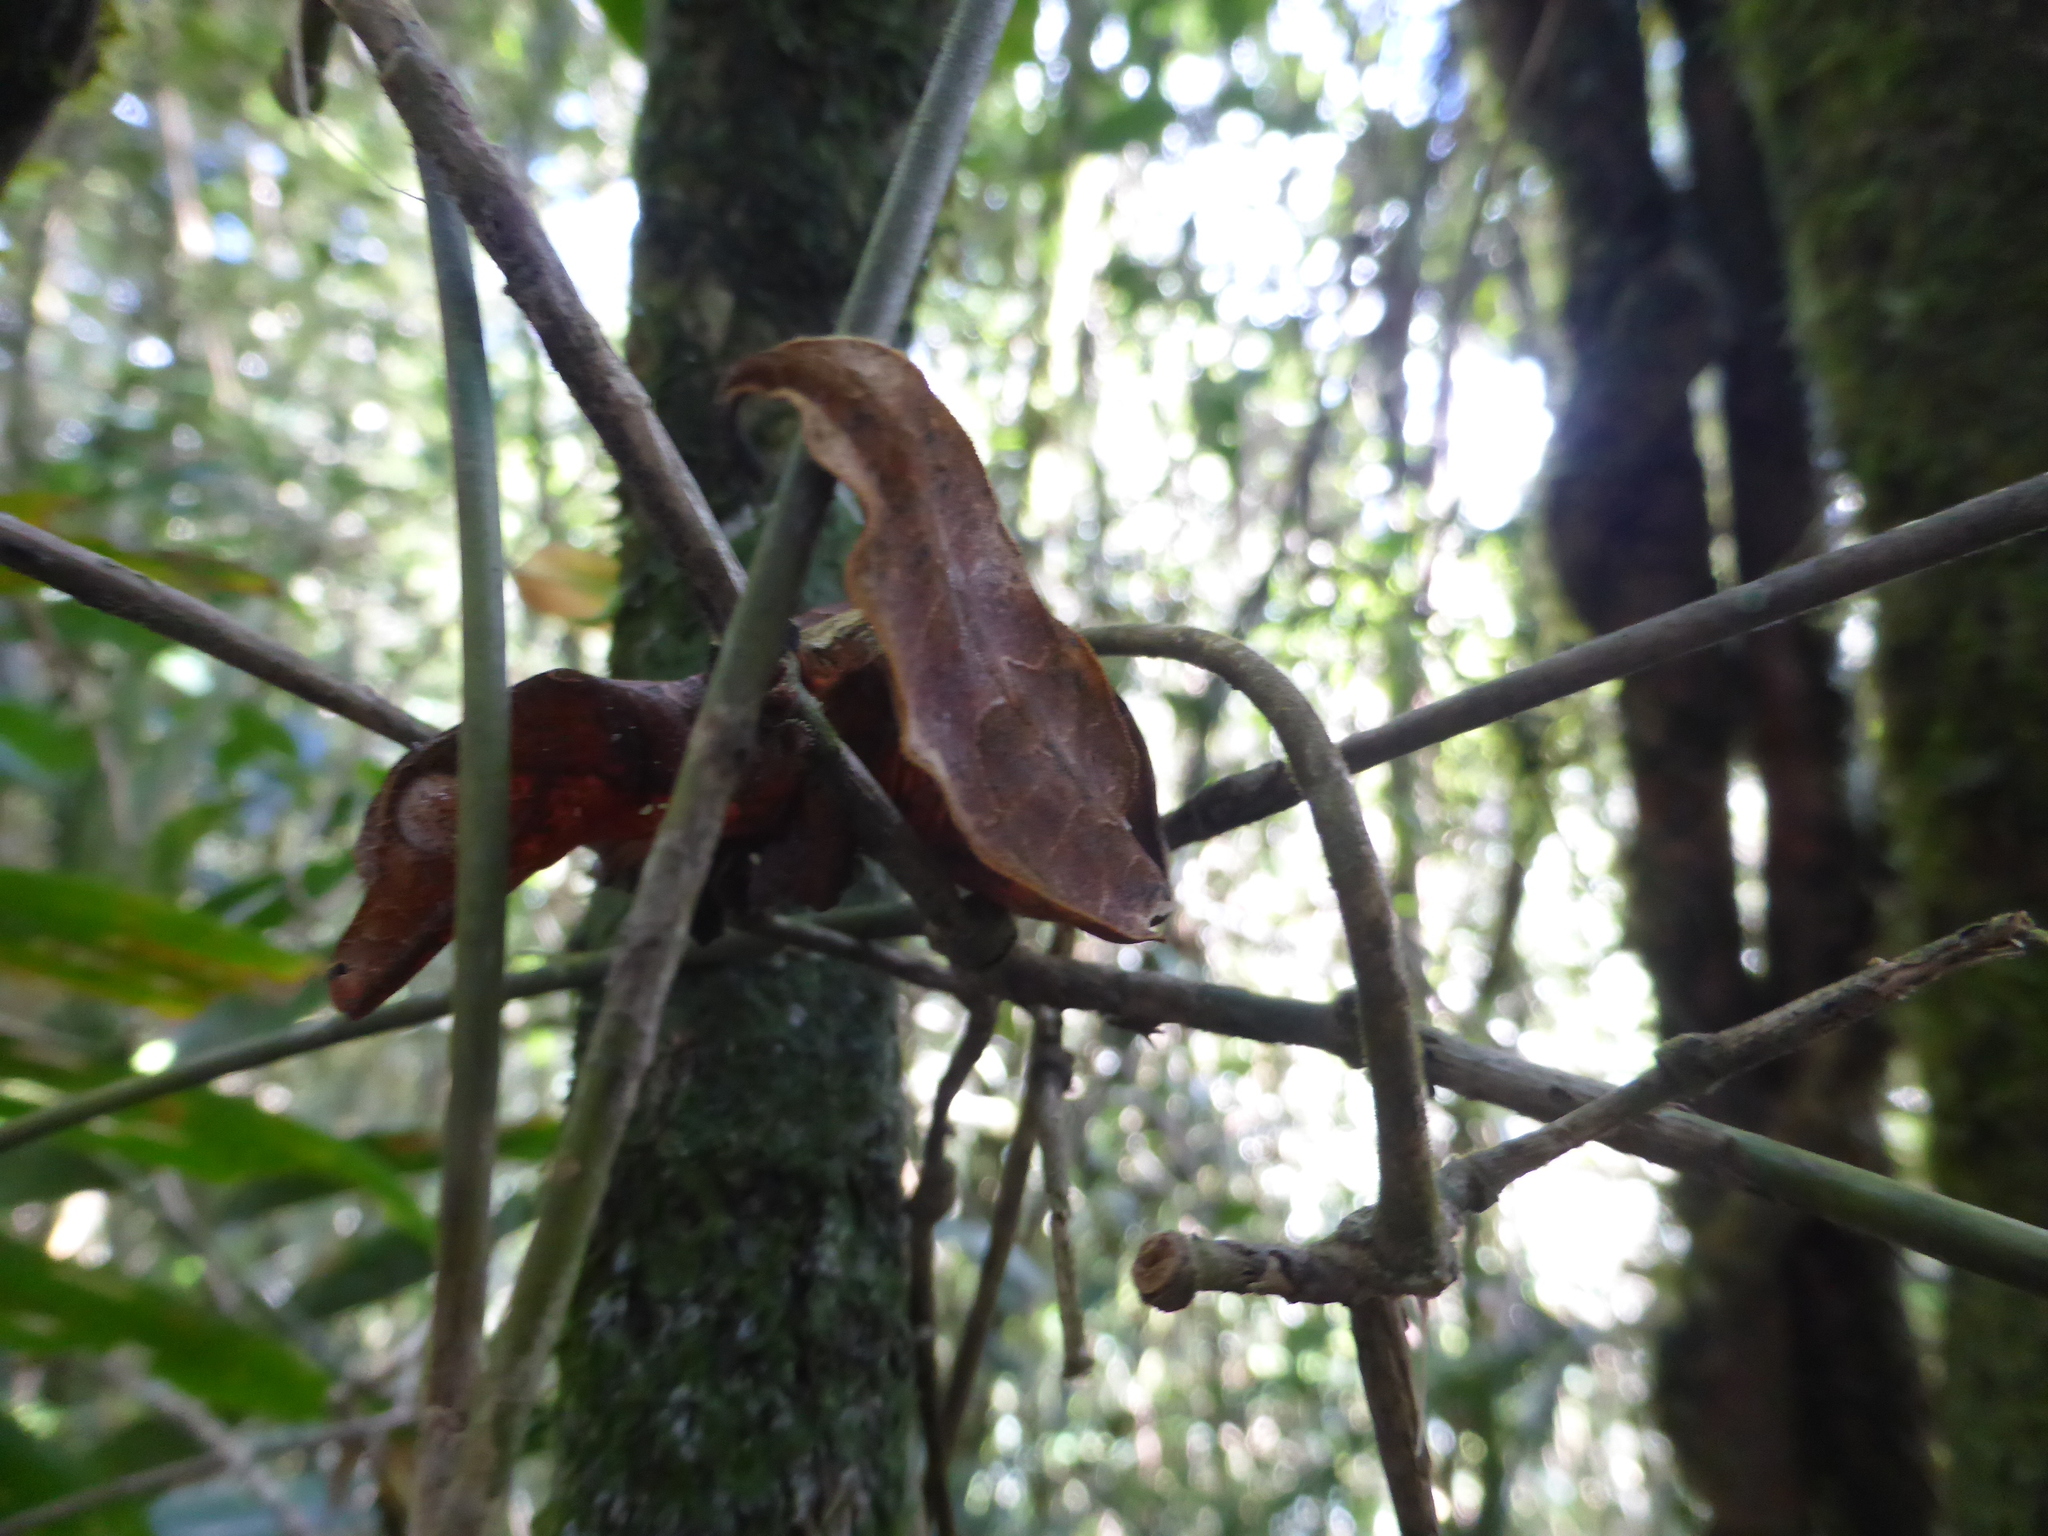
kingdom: Animalia
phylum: Chordata
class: Squamata
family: Gekkonidae
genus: Uroplatus
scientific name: Uroplatus phantasticus
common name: Phantastic leaf-tailed gecko
